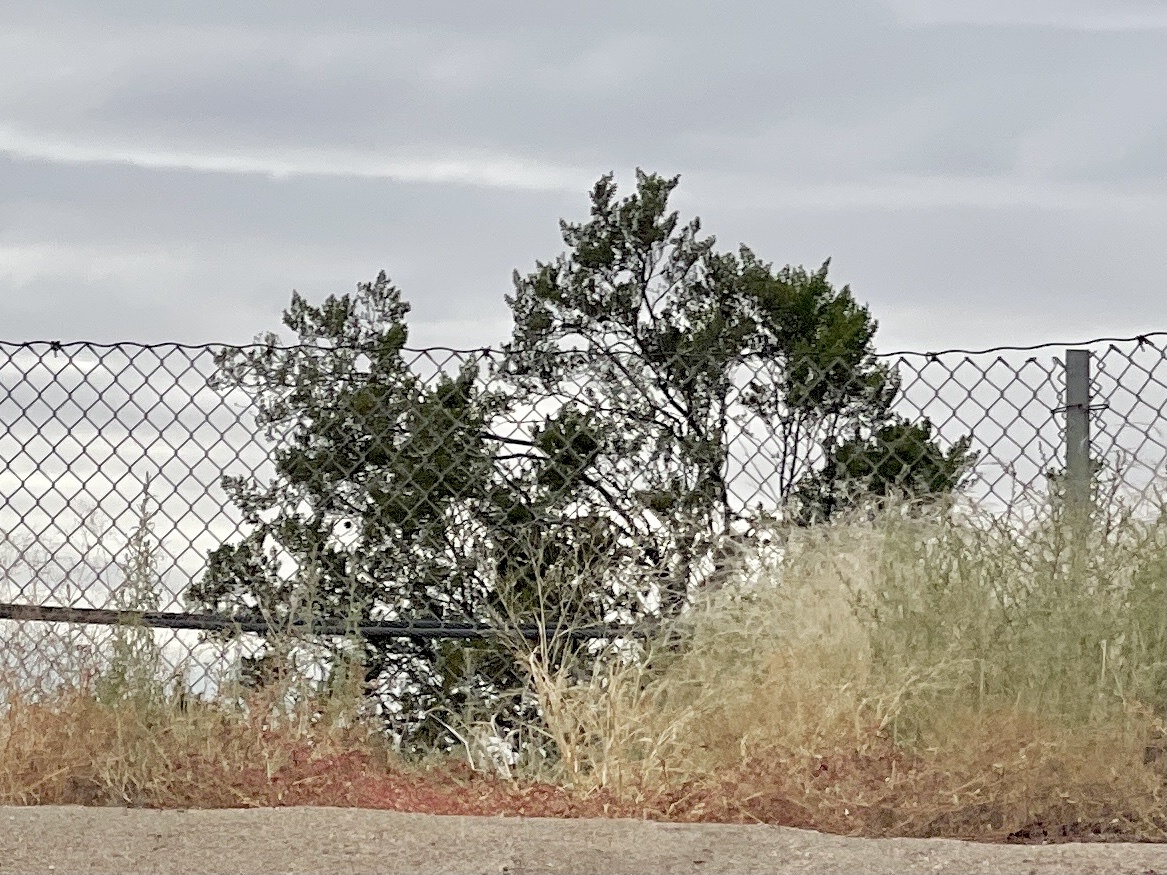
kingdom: Plantae
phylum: Tracheophyta
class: Magnoliopsida
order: Zygophyllales
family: Zygophyllaceae
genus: Larrea
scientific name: Larrea tridentata
